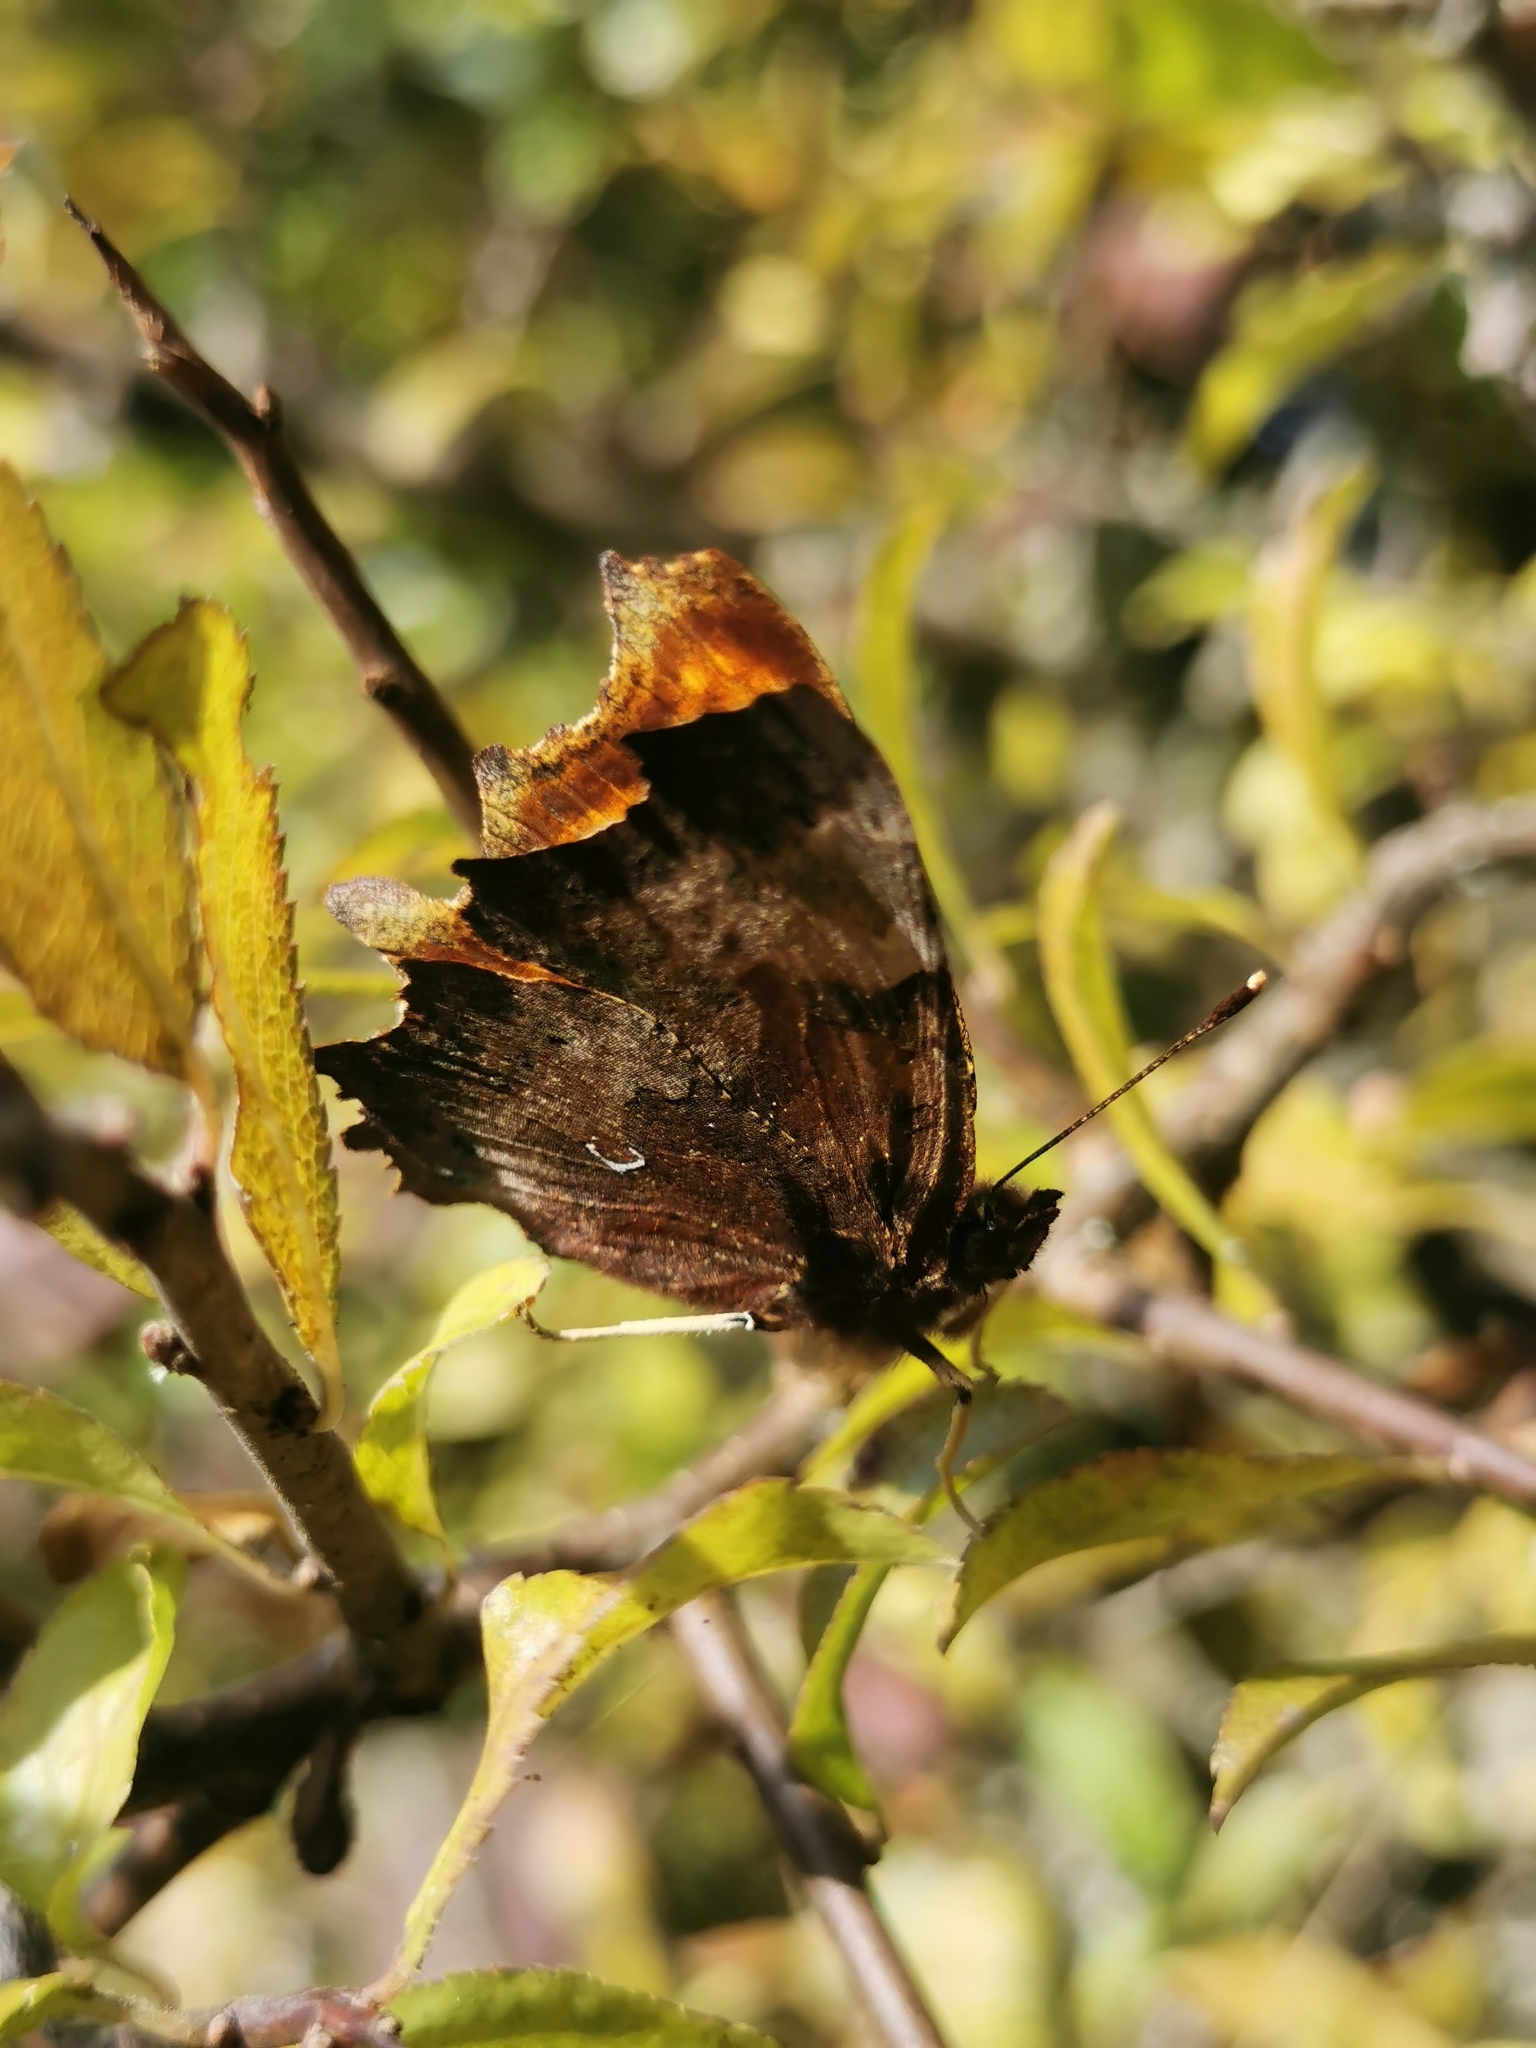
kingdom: Animalia
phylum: Arthropoda
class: Insecta
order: Lepidoptera
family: Nymphalidae
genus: Polygonia
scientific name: Polygonia c-album
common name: Comma
